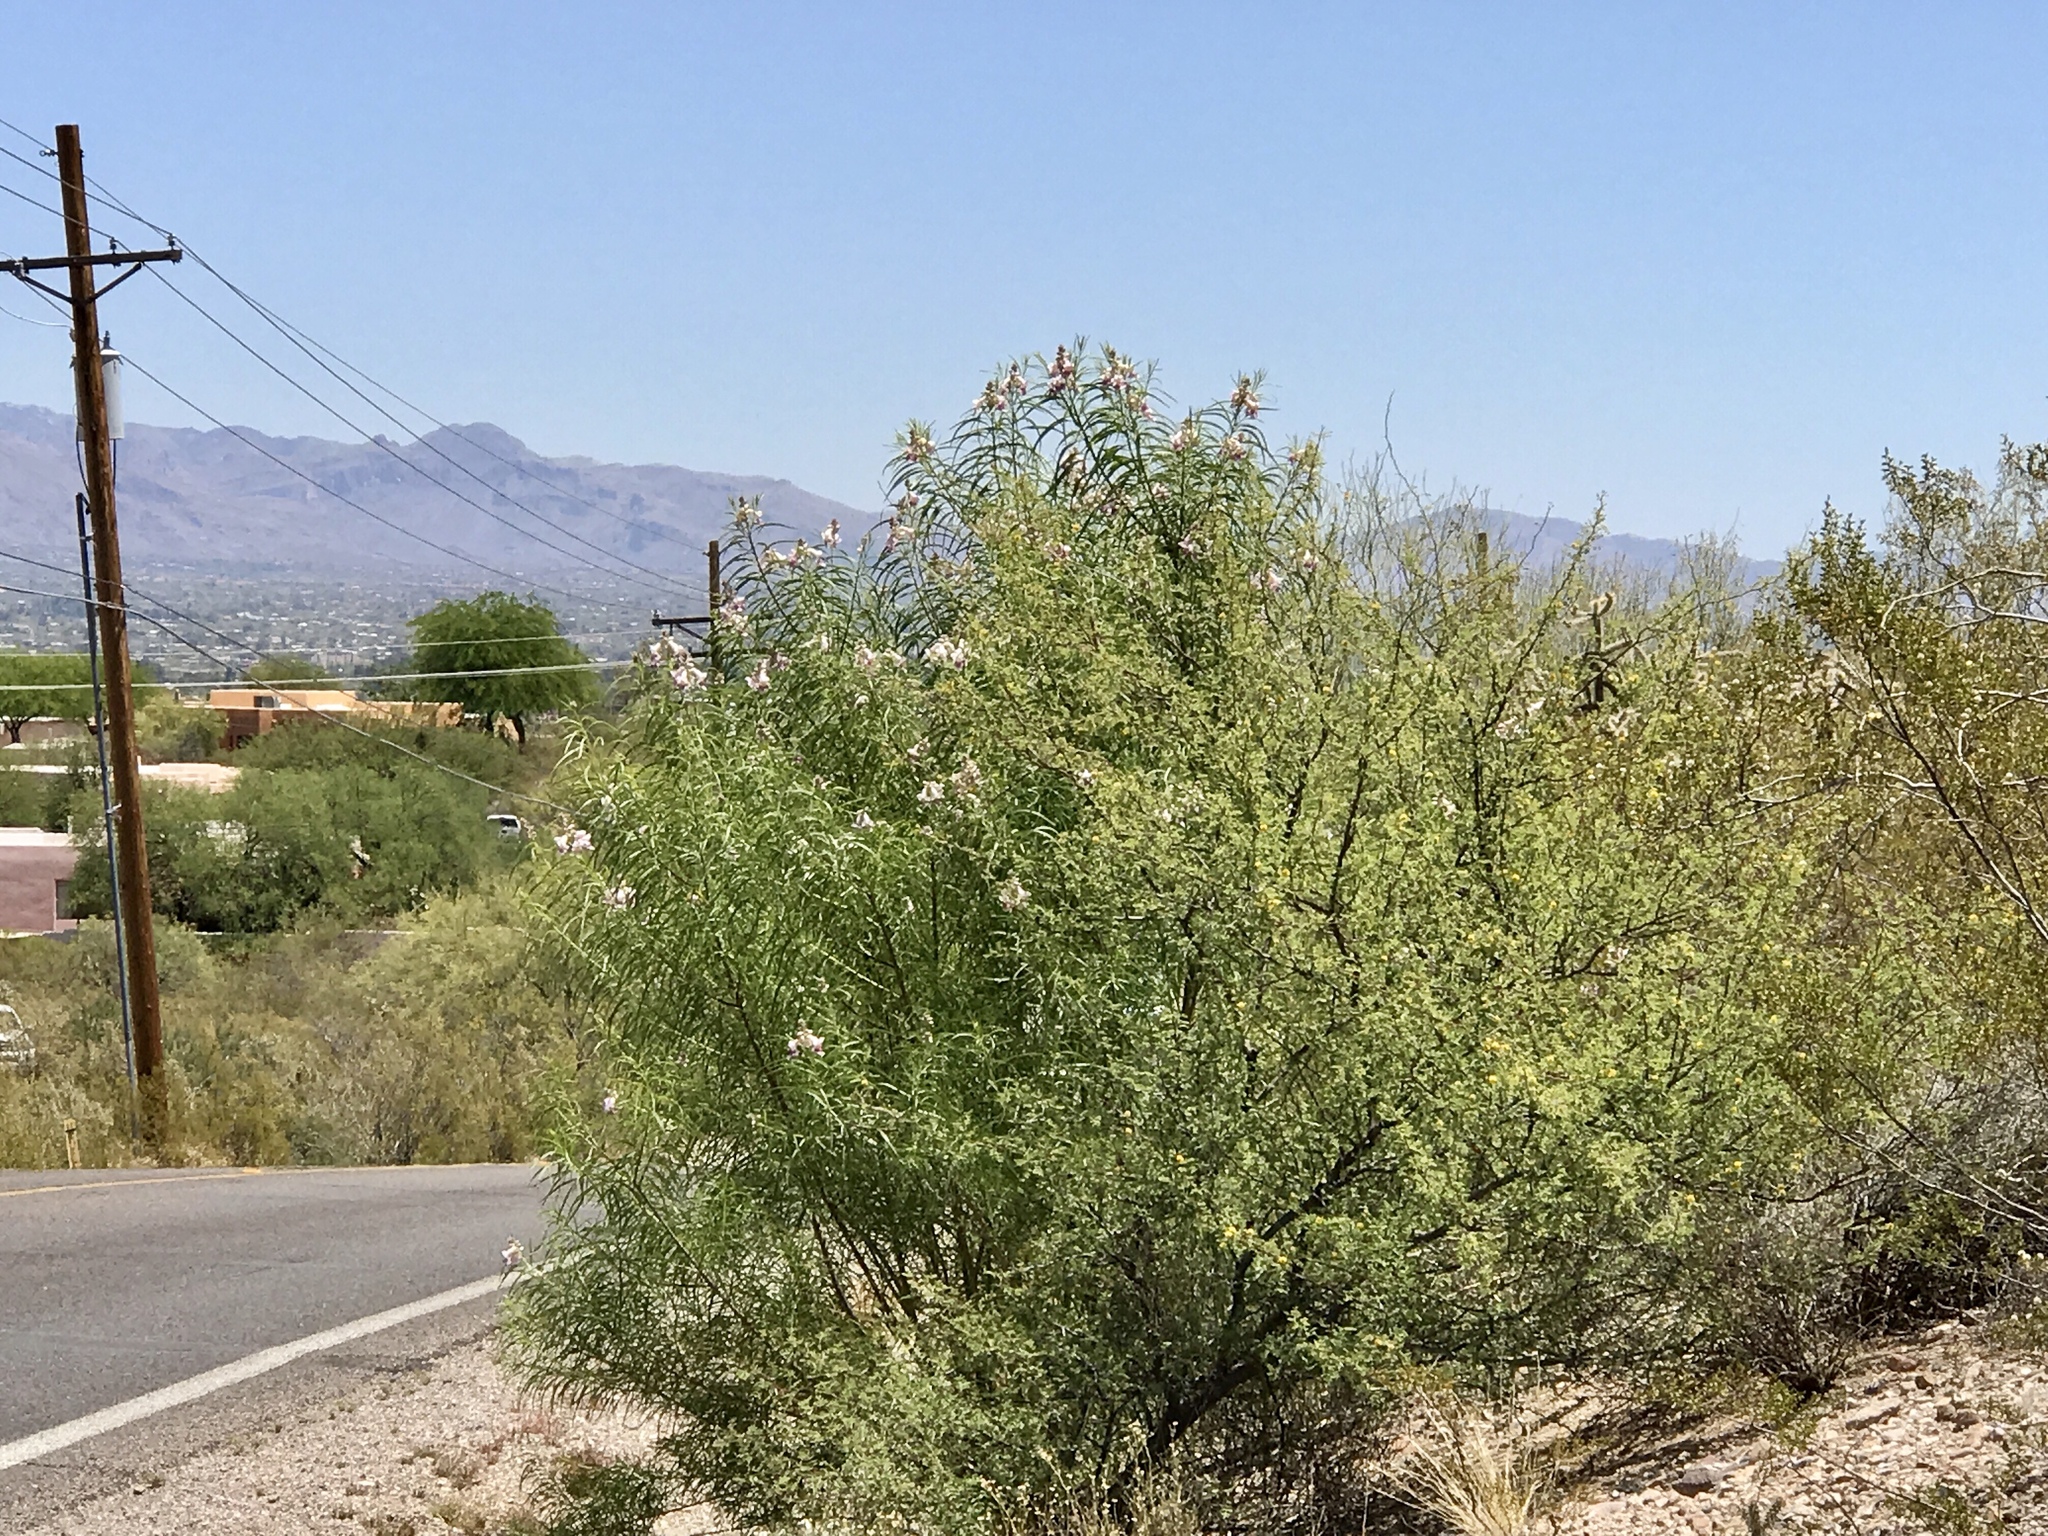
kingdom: Plantae
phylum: Tracheophyta
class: Magnoliopsida
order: Lamiales
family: Bignoniaceae
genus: Chilopsis
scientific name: Chilopsis linearis
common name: Desert-willow
